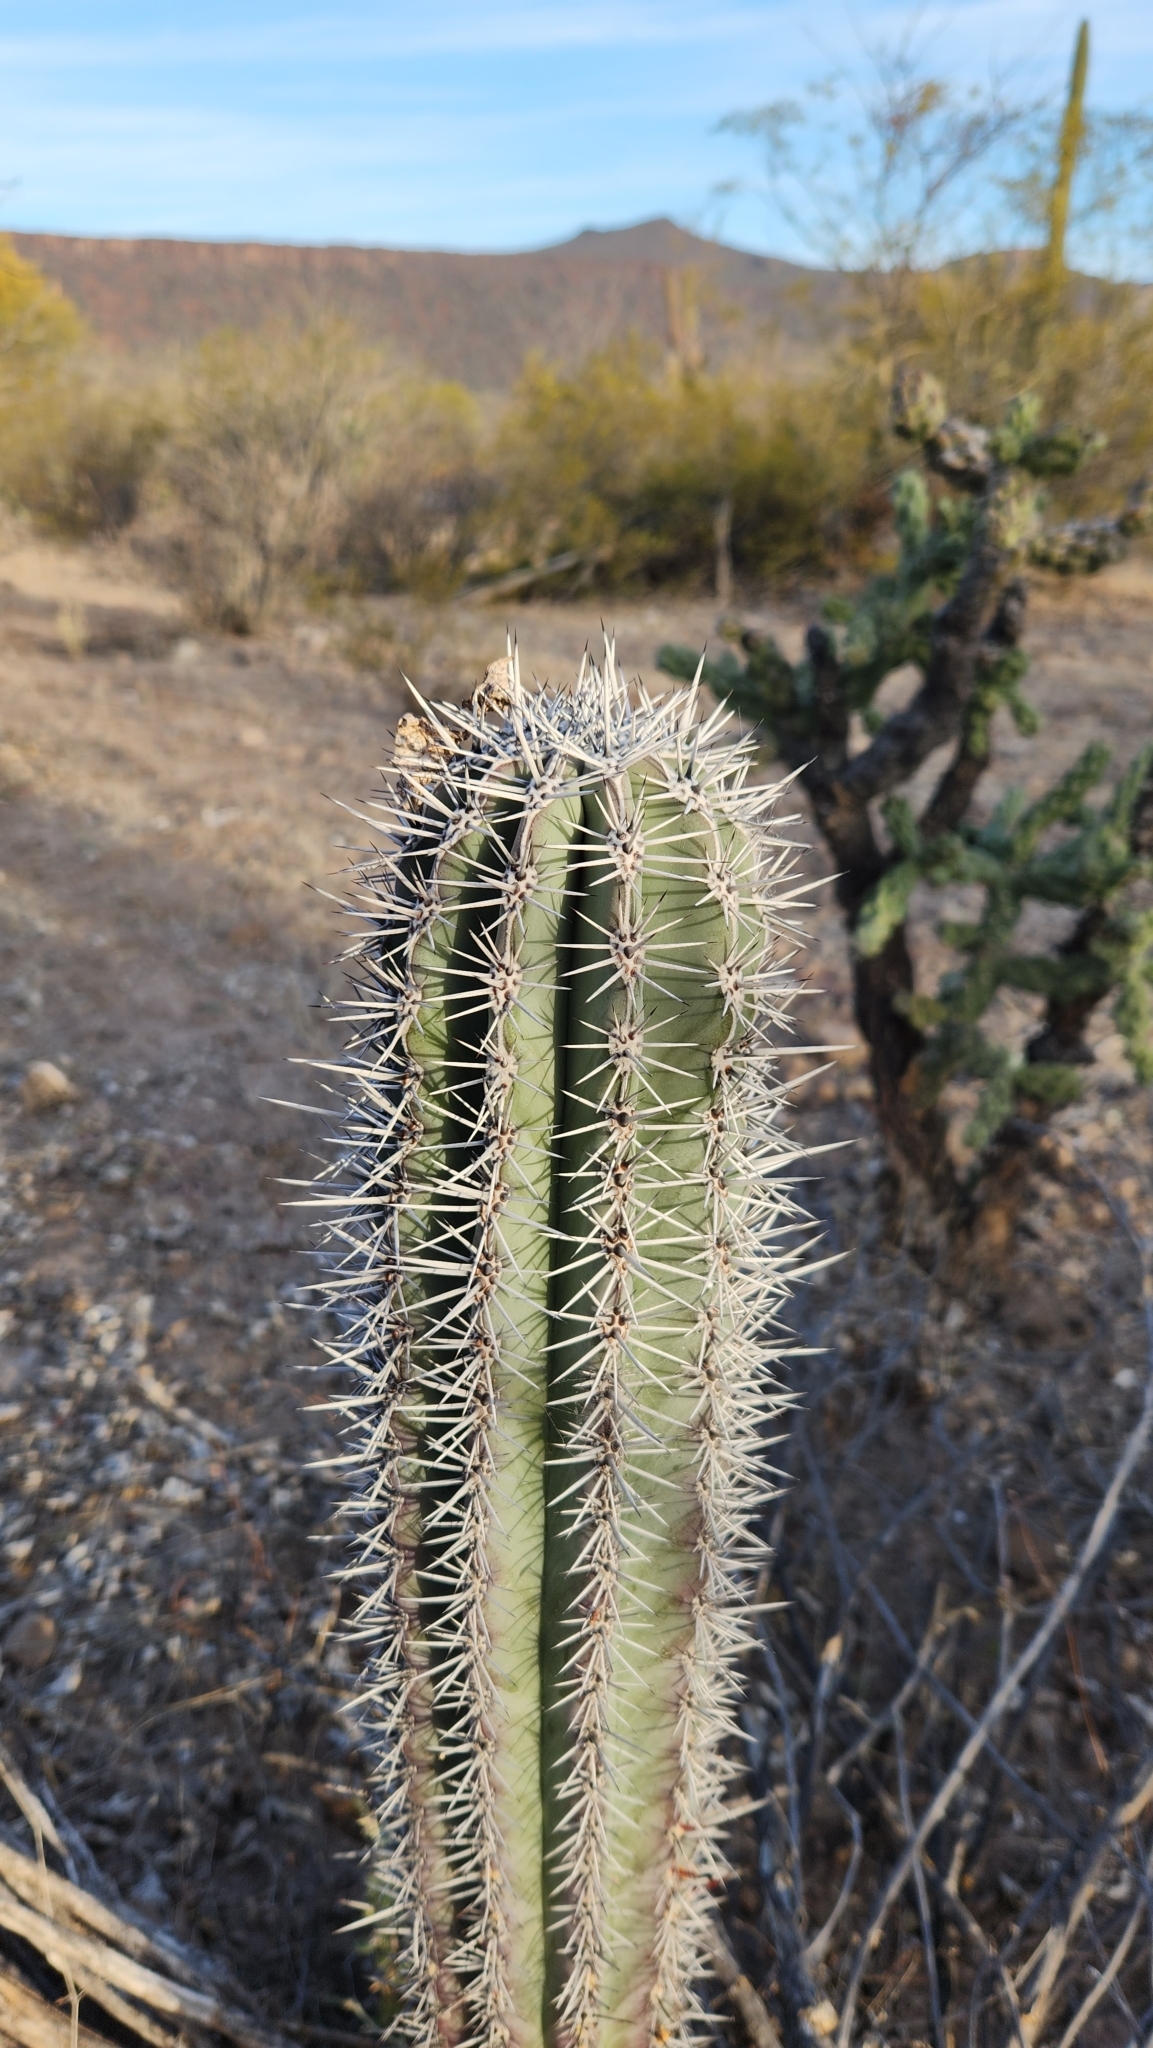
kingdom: Plantae
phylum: Tracheophyta
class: Magnoliopsida
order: Caryophyllales
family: Cactaceae
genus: Pachycereus
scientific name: Pachycereus pringlei
